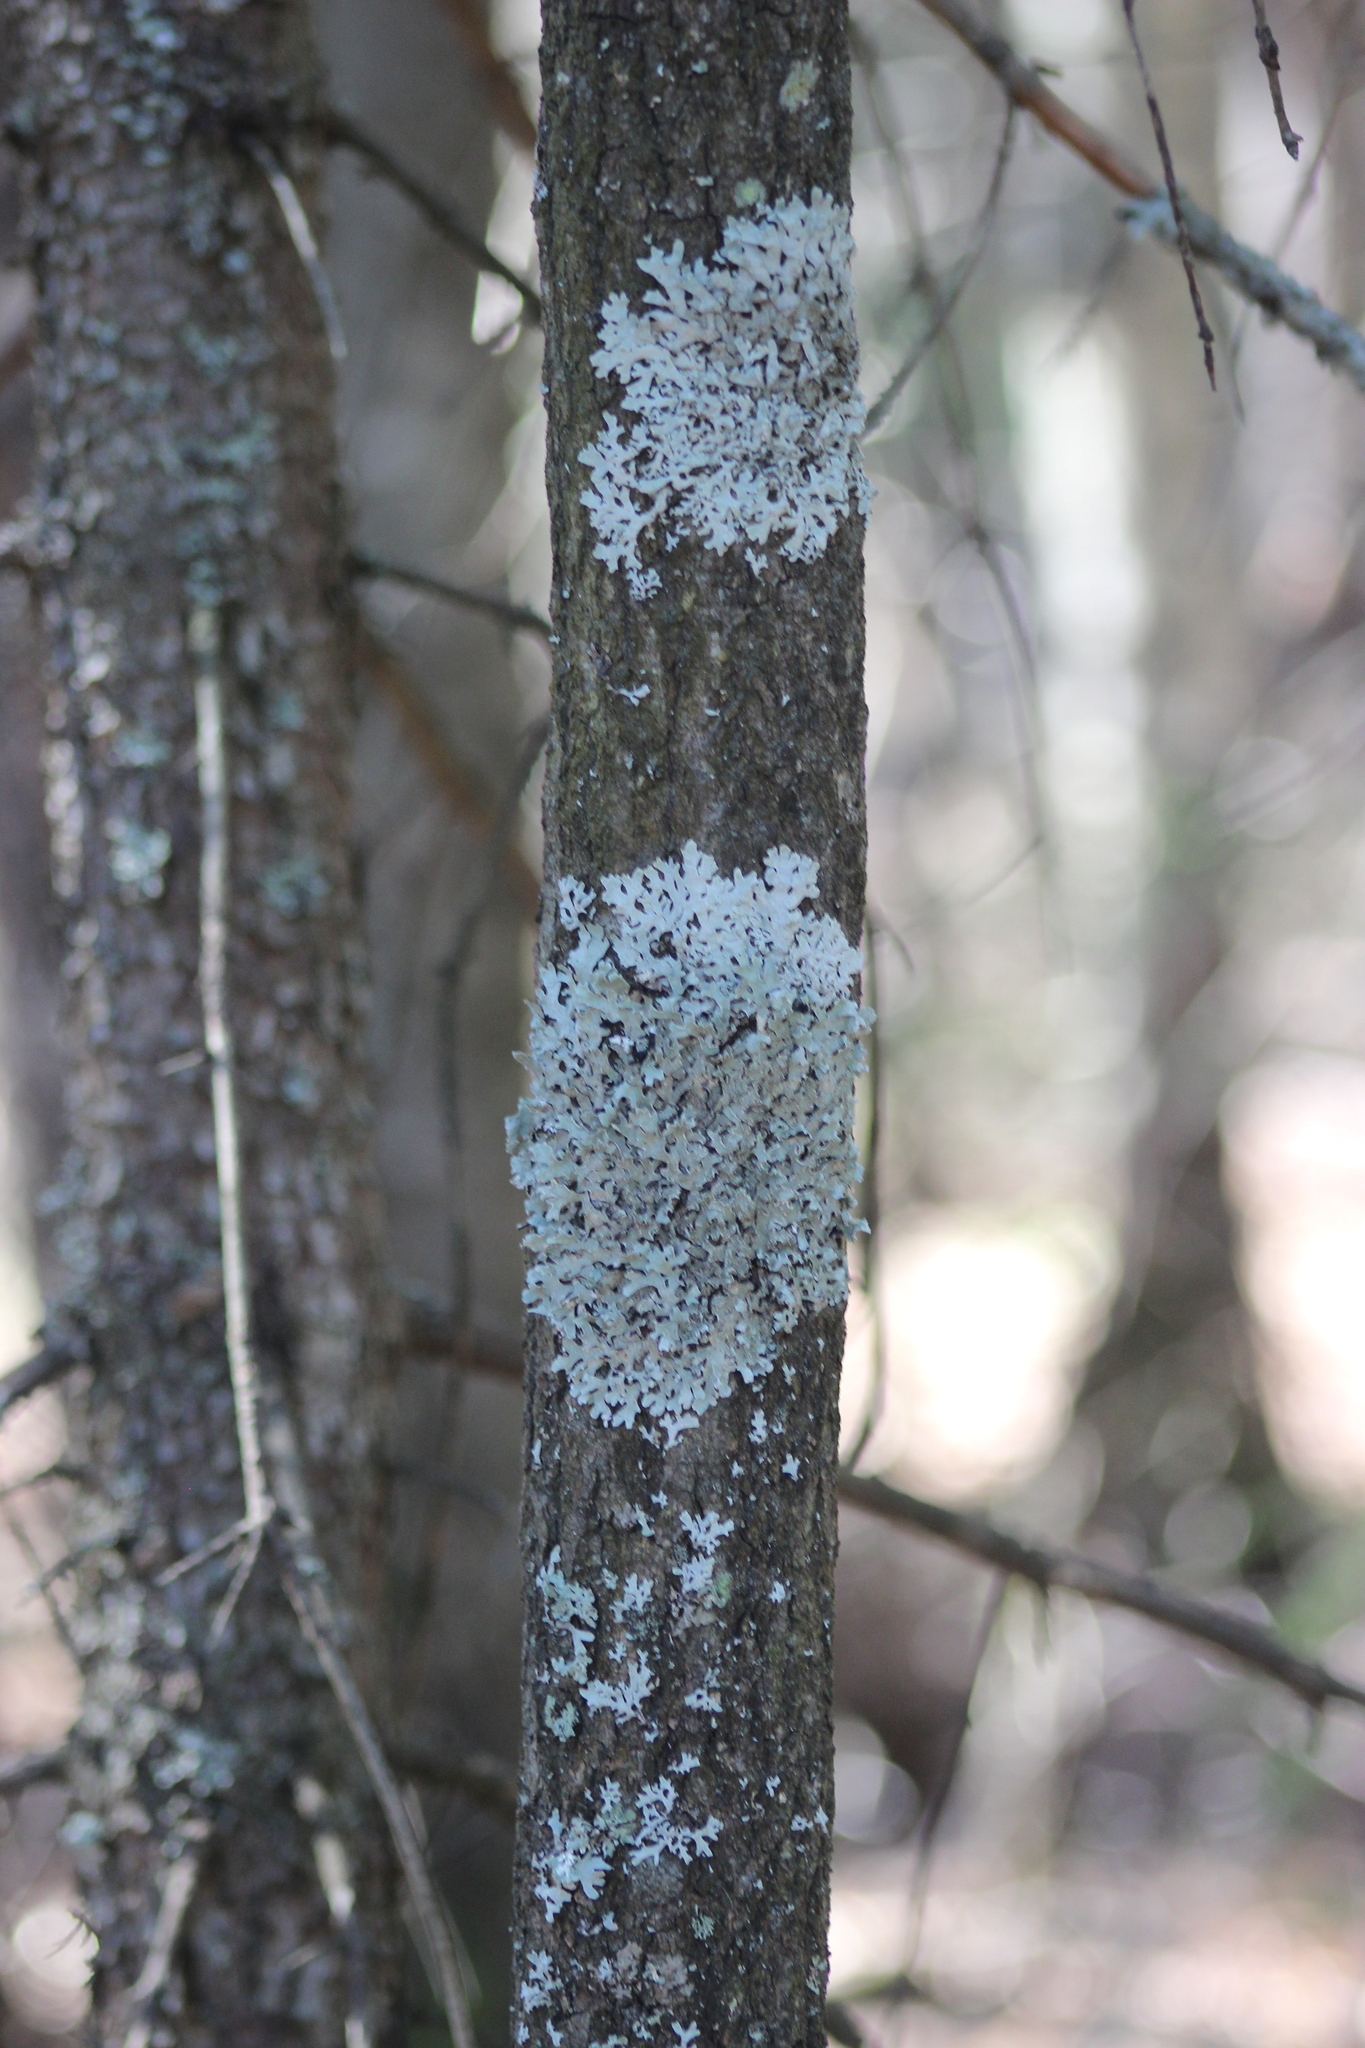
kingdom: Fungi
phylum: Ascomycota
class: Lecanoromycetes
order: Lecanorales
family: Parmeliaceae
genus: Parmelia
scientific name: Parmelia sulcata
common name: Netted shield lichen
